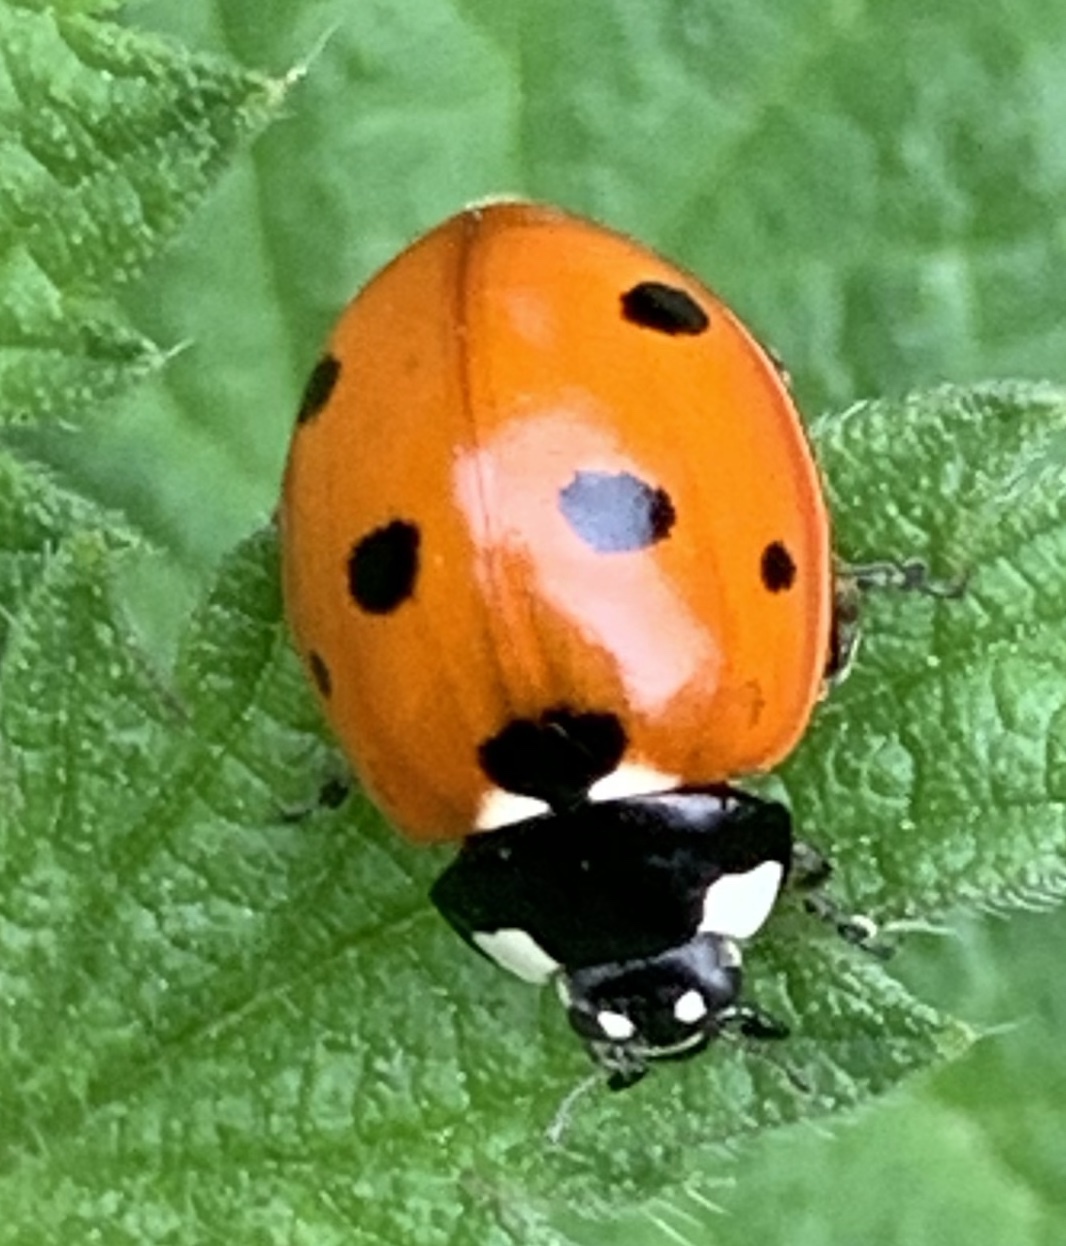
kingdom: Animalia
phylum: Arthropoda
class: Insecta
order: Coleoptera
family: Coccinellidae
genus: Coccinella
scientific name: Coccinella septempunctata
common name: Sevenspotted lady beetle
